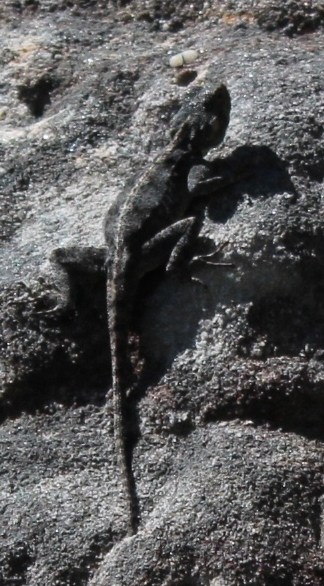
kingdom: Animalia
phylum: Chordata
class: Squamata
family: Agamidae
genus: Agama
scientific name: Agama atra
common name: Southern african rock agama
